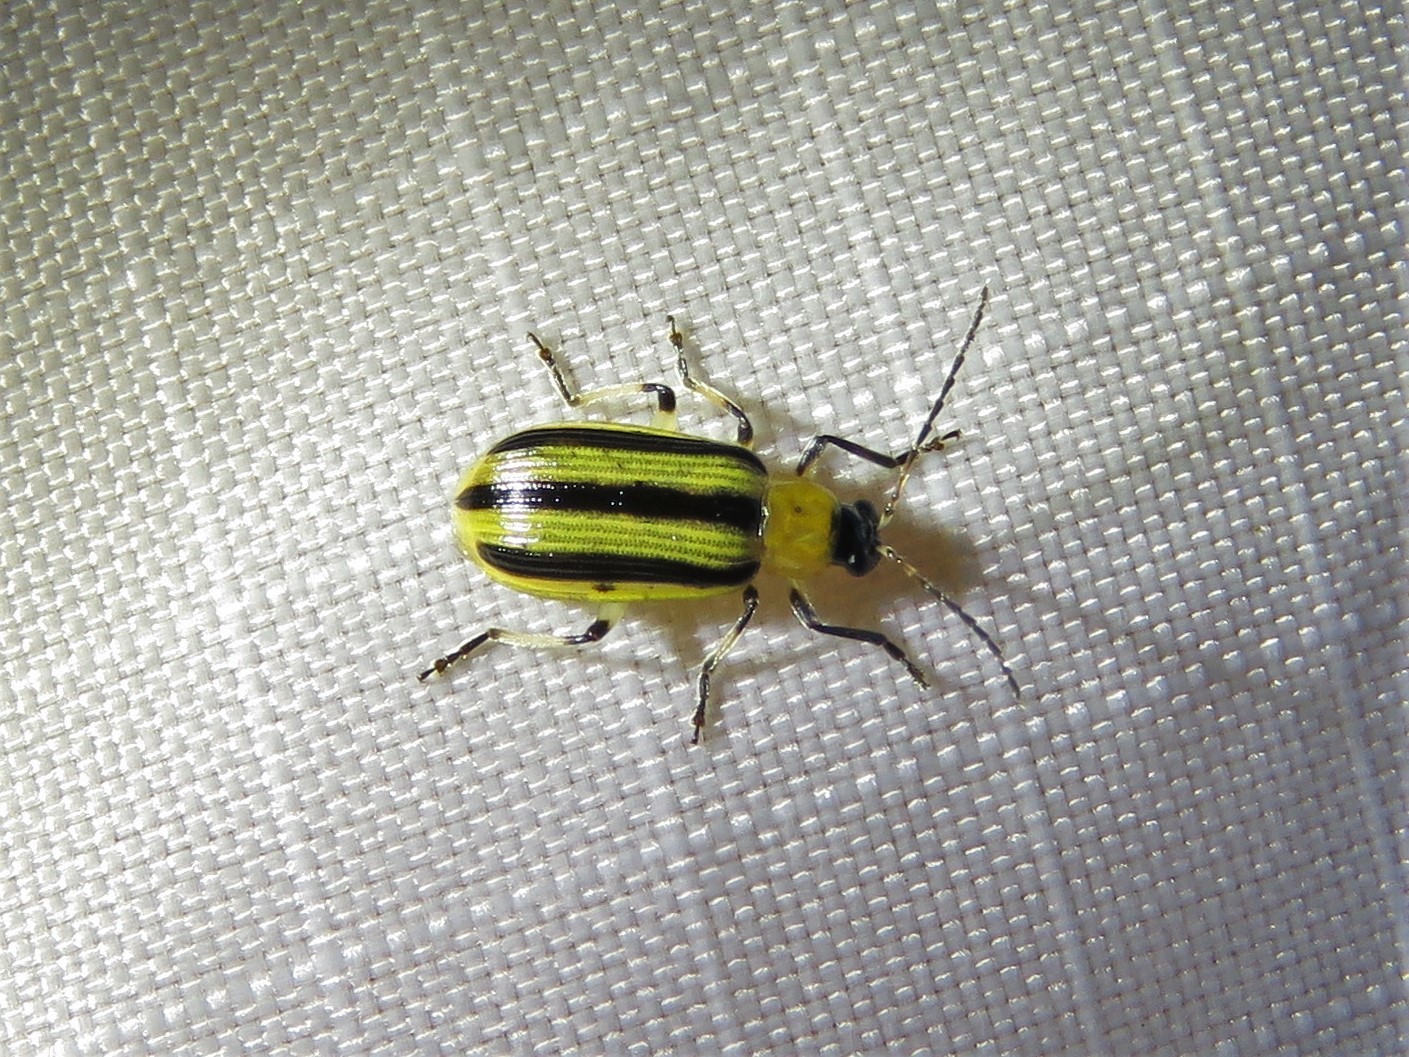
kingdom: Animalia
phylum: Arthropoda
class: Insecta
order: Coleoptera
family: Chrysomelidae
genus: Acalymma
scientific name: Acalymma vittatum
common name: Striped cucumber beetle
